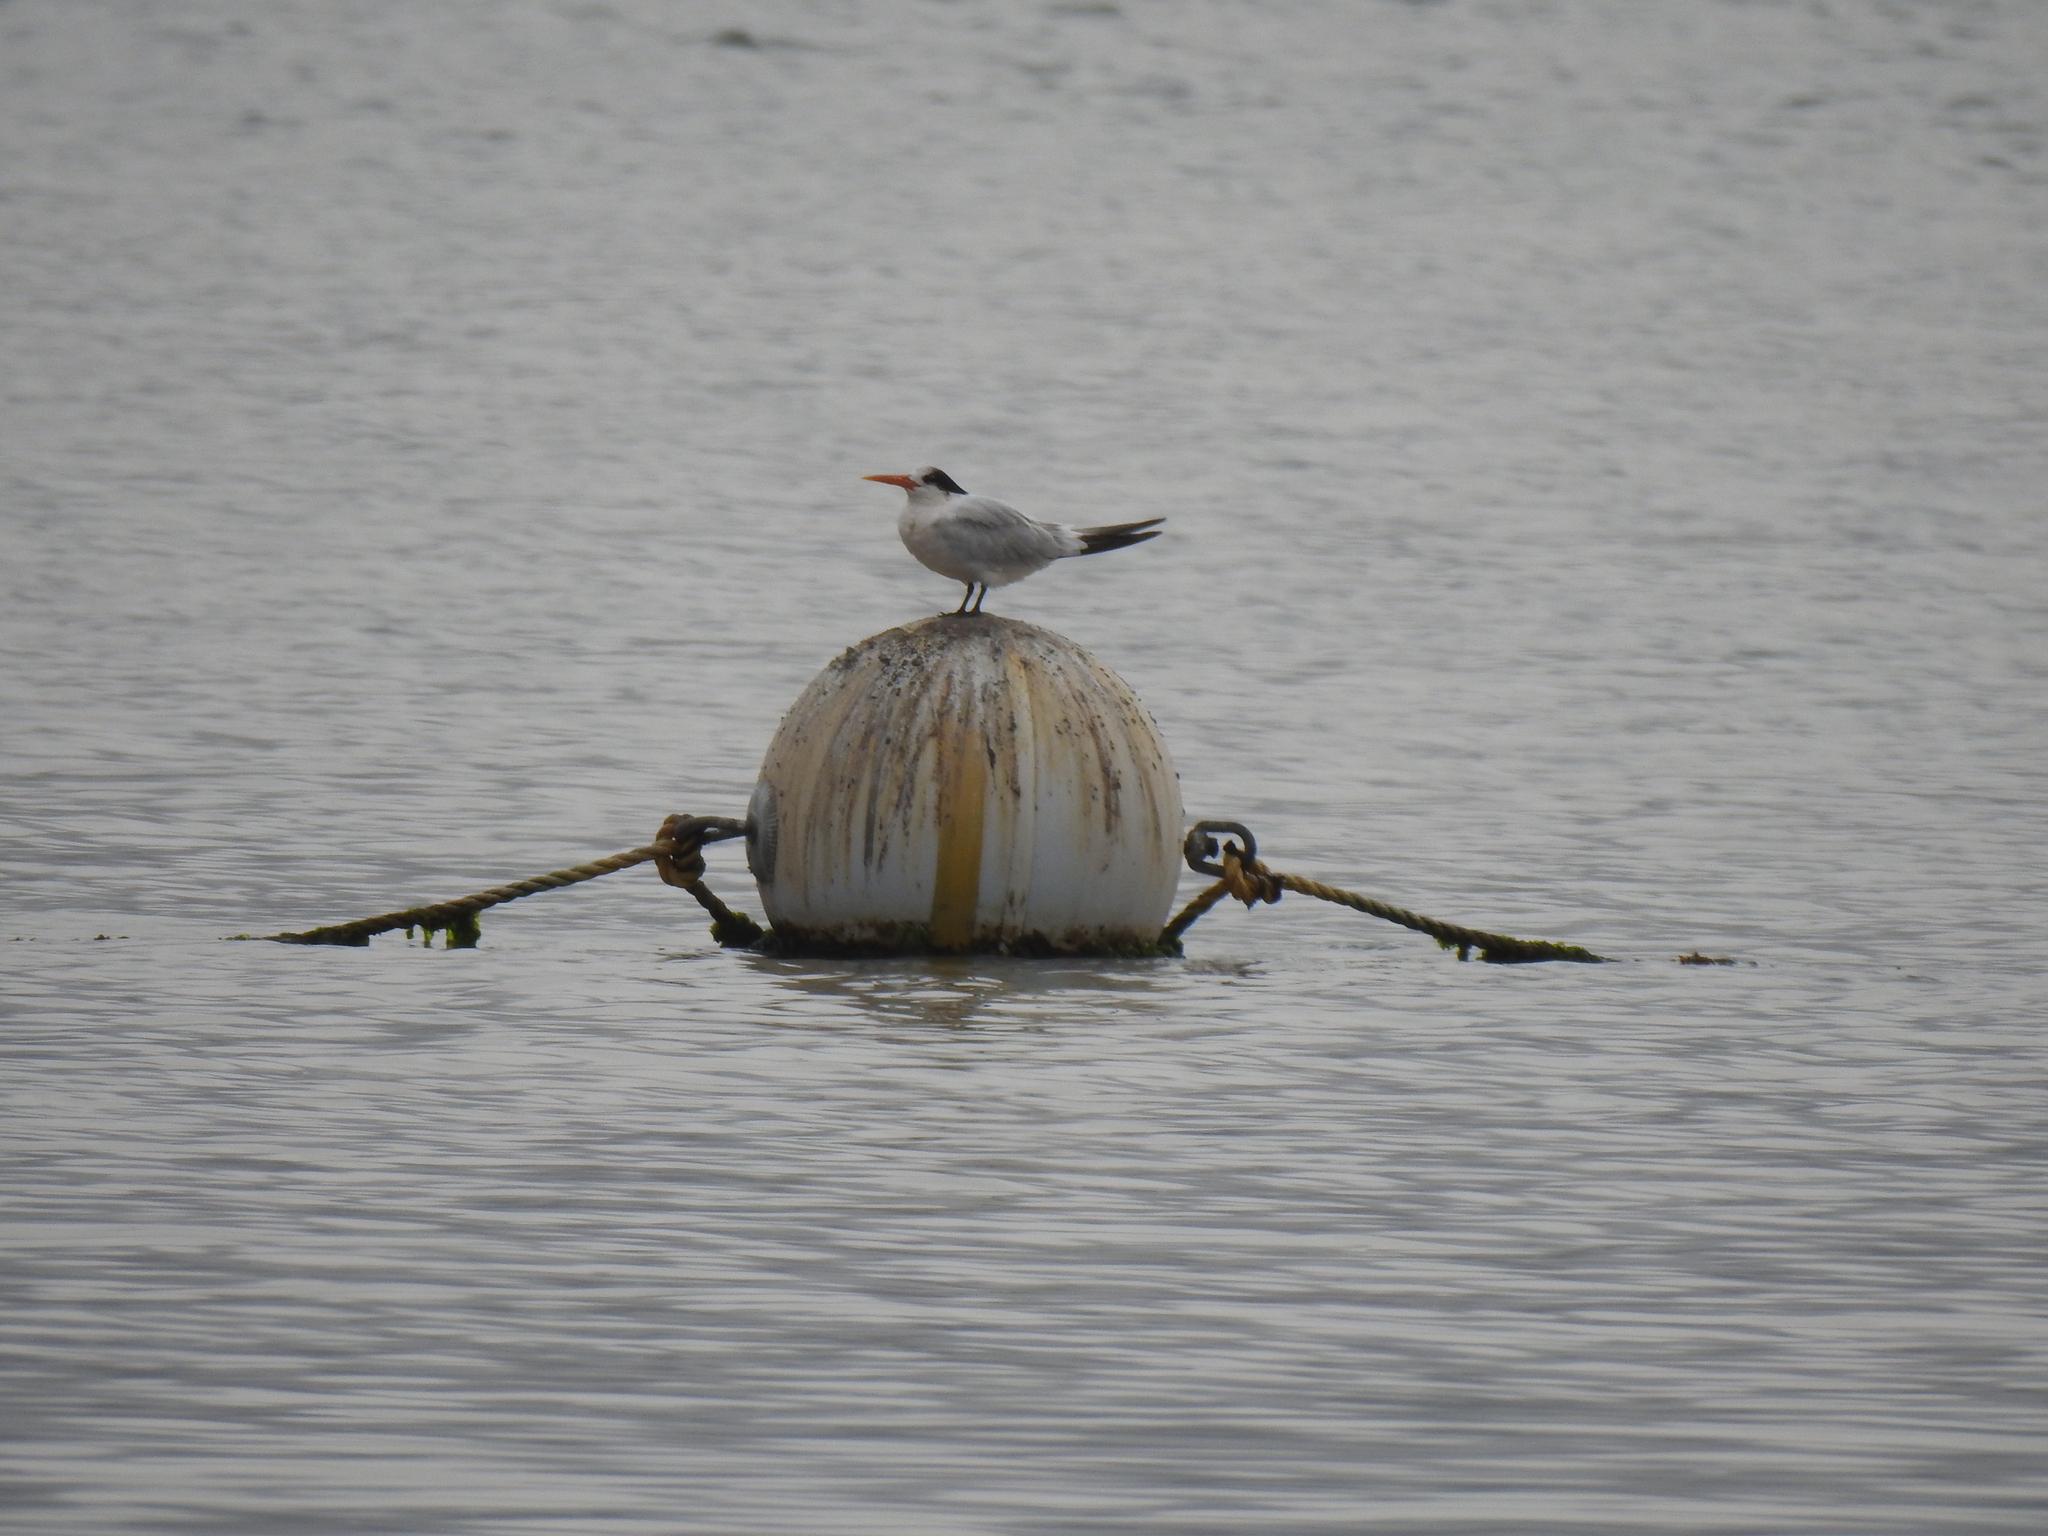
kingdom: Animalia
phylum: Chordata
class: Aves
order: Charadriiformes
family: Laridae
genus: Thalasseus
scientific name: Thalasseus elegans
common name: Elegant tern
